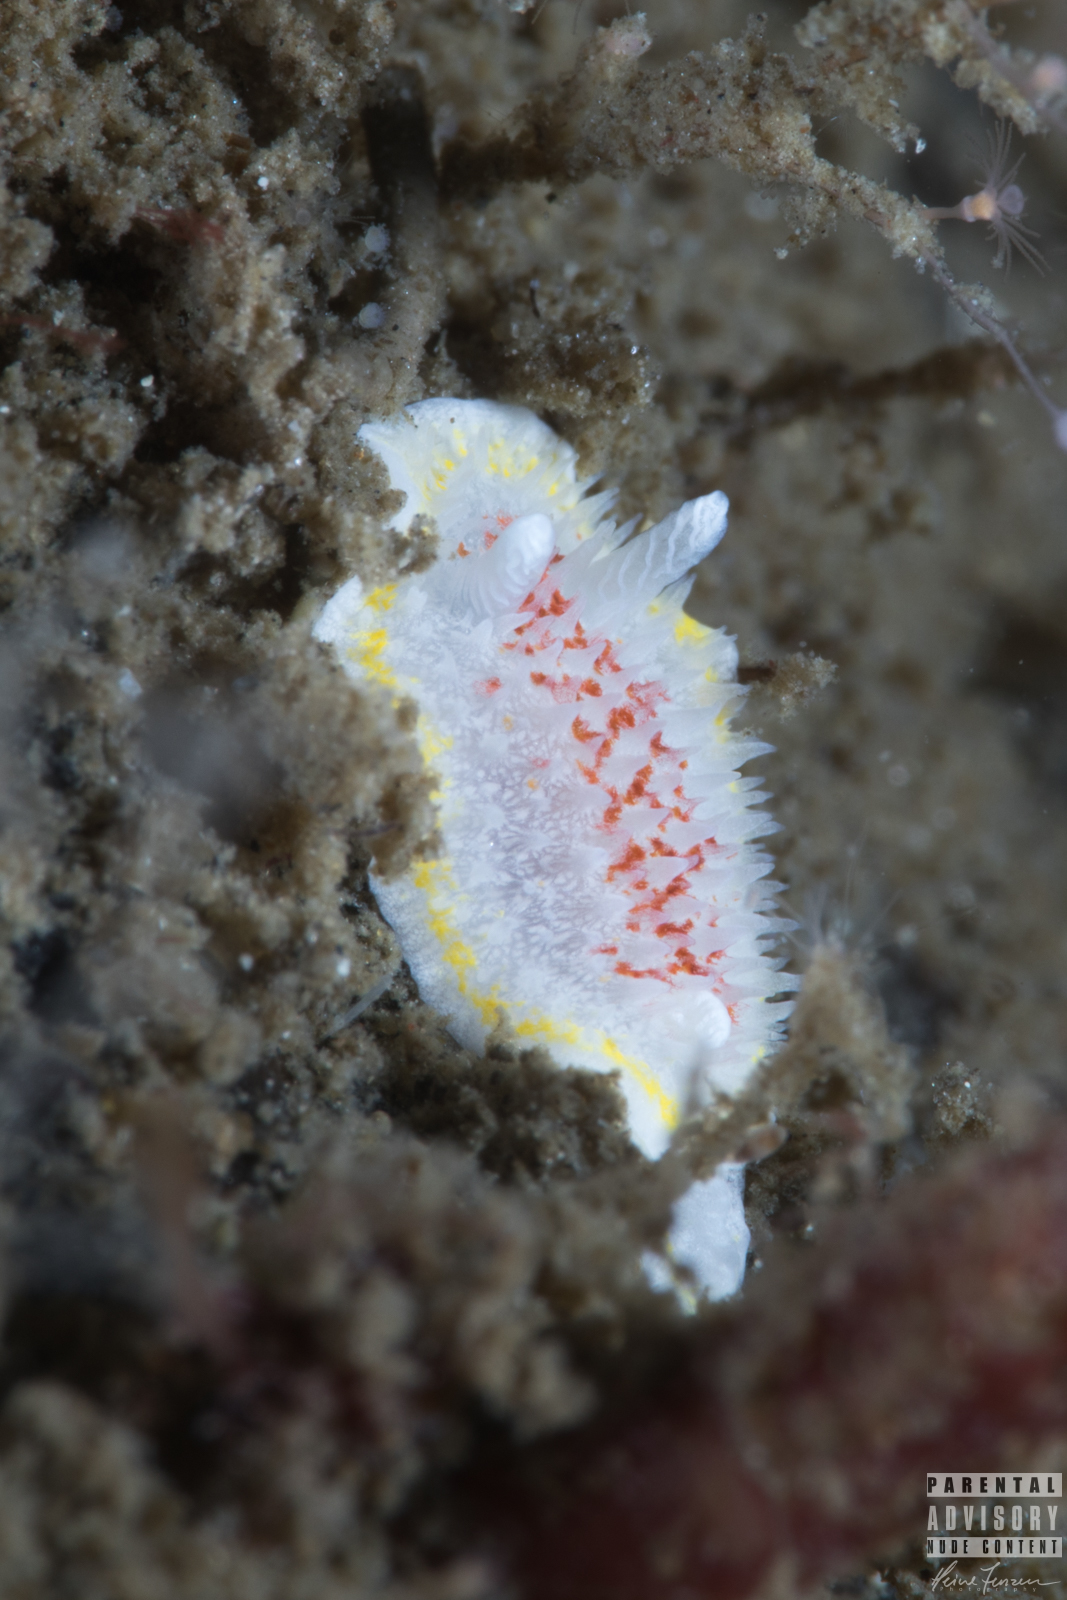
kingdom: Animalia
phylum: Mollusca
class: Gastropoda
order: Nudibranchia
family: Calycidorididae
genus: Diaphorodoris
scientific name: Diaphorodoris luteocincta
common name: Fried egg nudibranch
